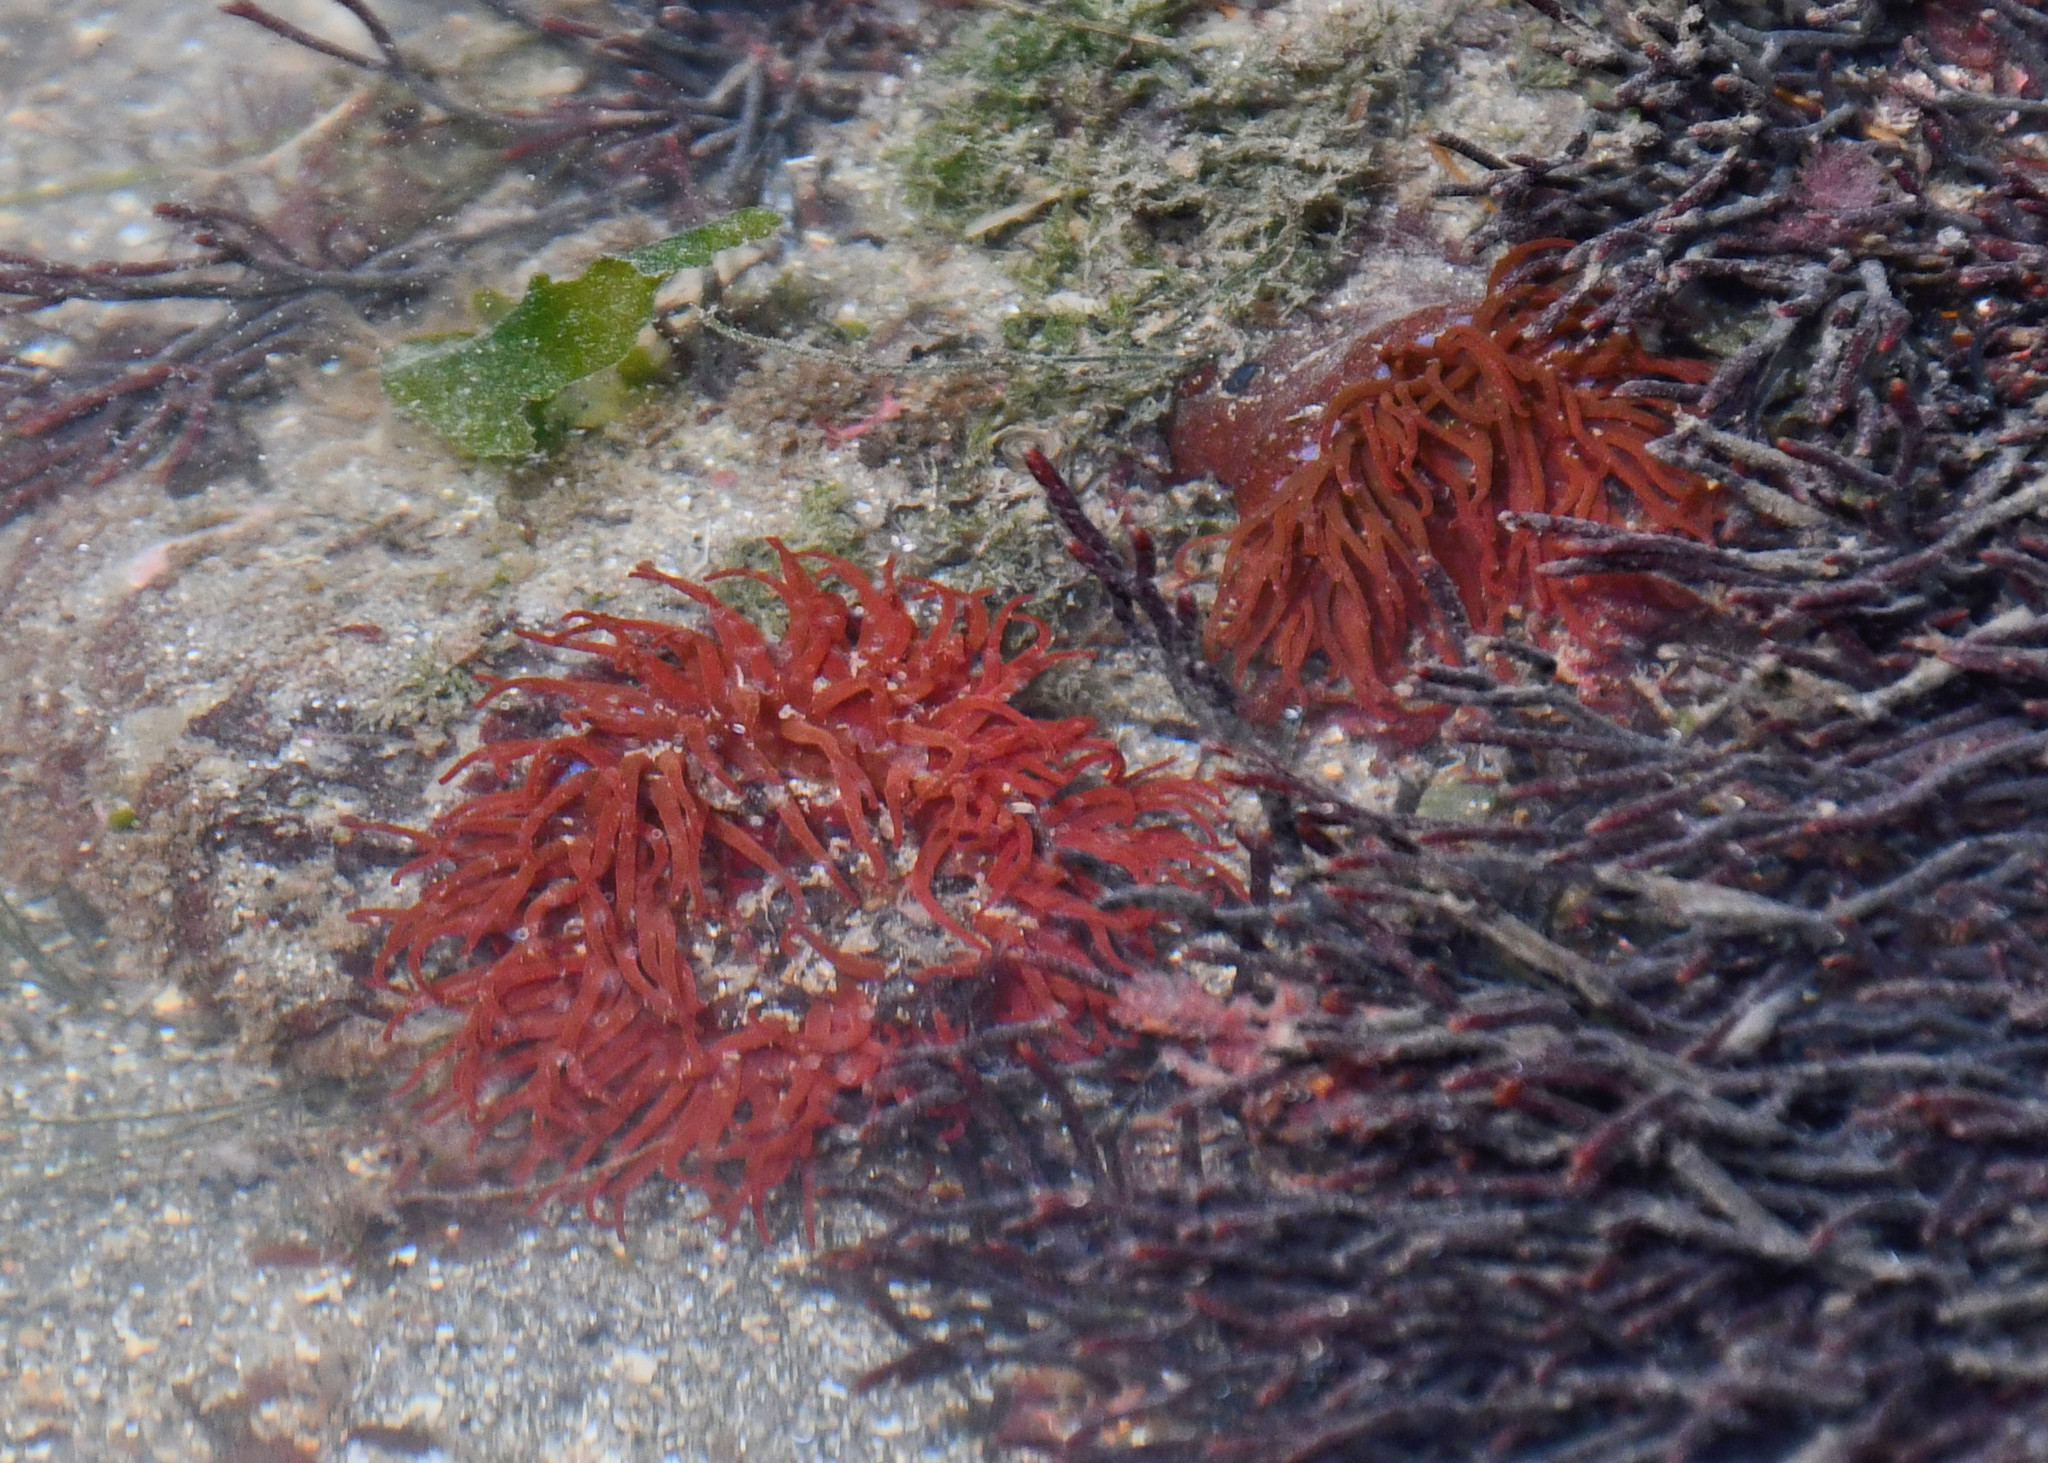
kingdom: Animalia
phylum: Cnidaria
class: Anthozoa
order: Actiniaria
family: Actiniidae
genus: Actinia
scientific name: Actinia equina
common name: Beadlet anemone
